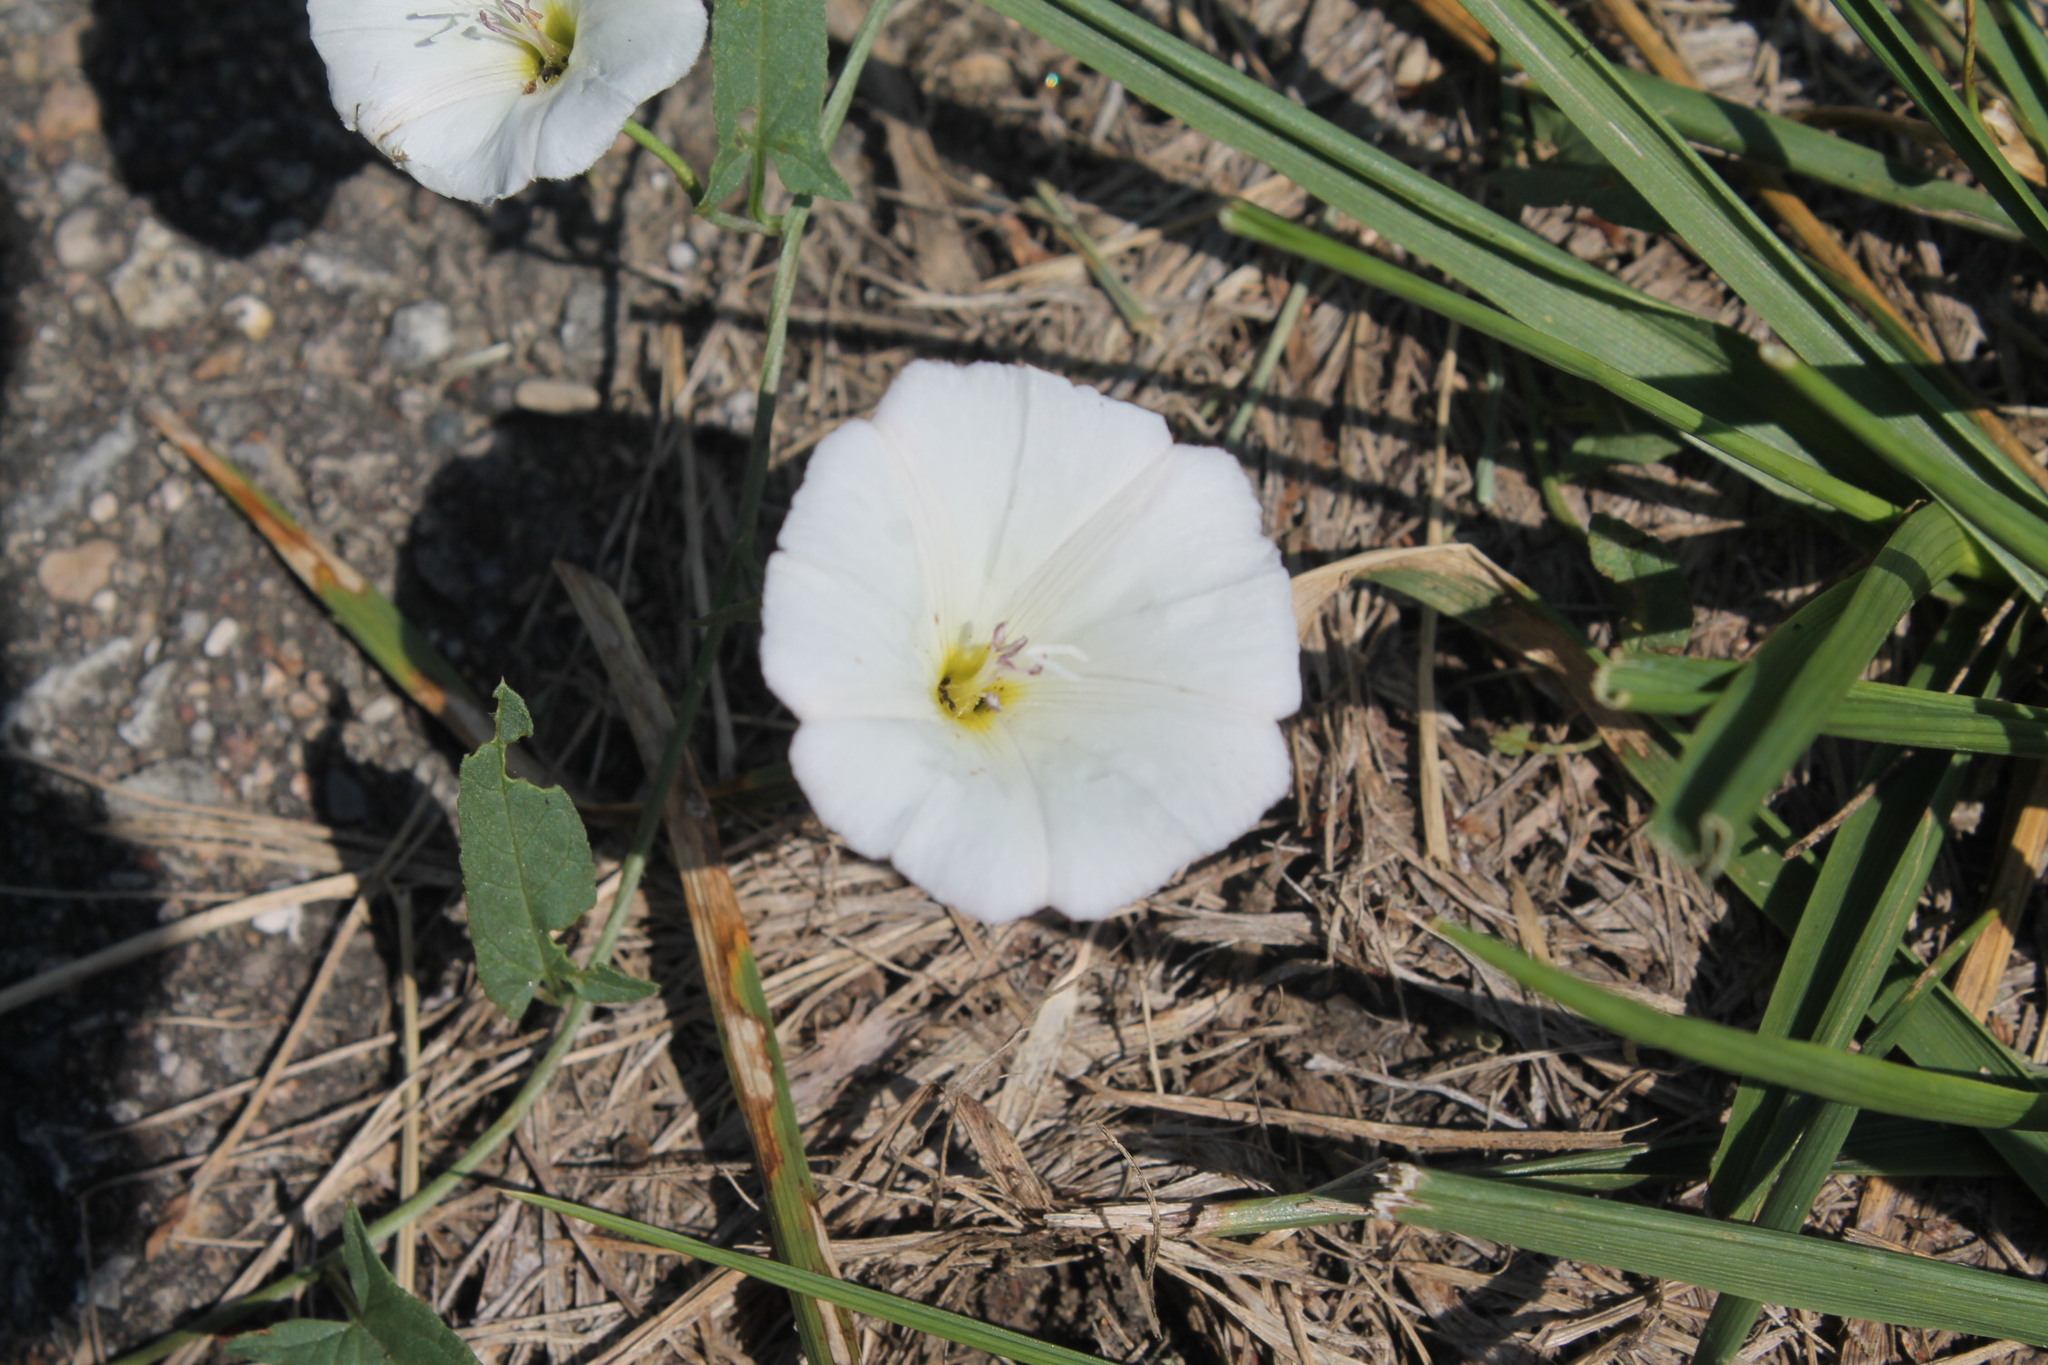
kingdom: Plantae
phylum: Tracheophyta
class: Magnoliopsida
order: Solanales
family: Convolvulaceae
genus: Convolvulus
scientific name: Convolvulus arvensis
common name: Field bindweed
